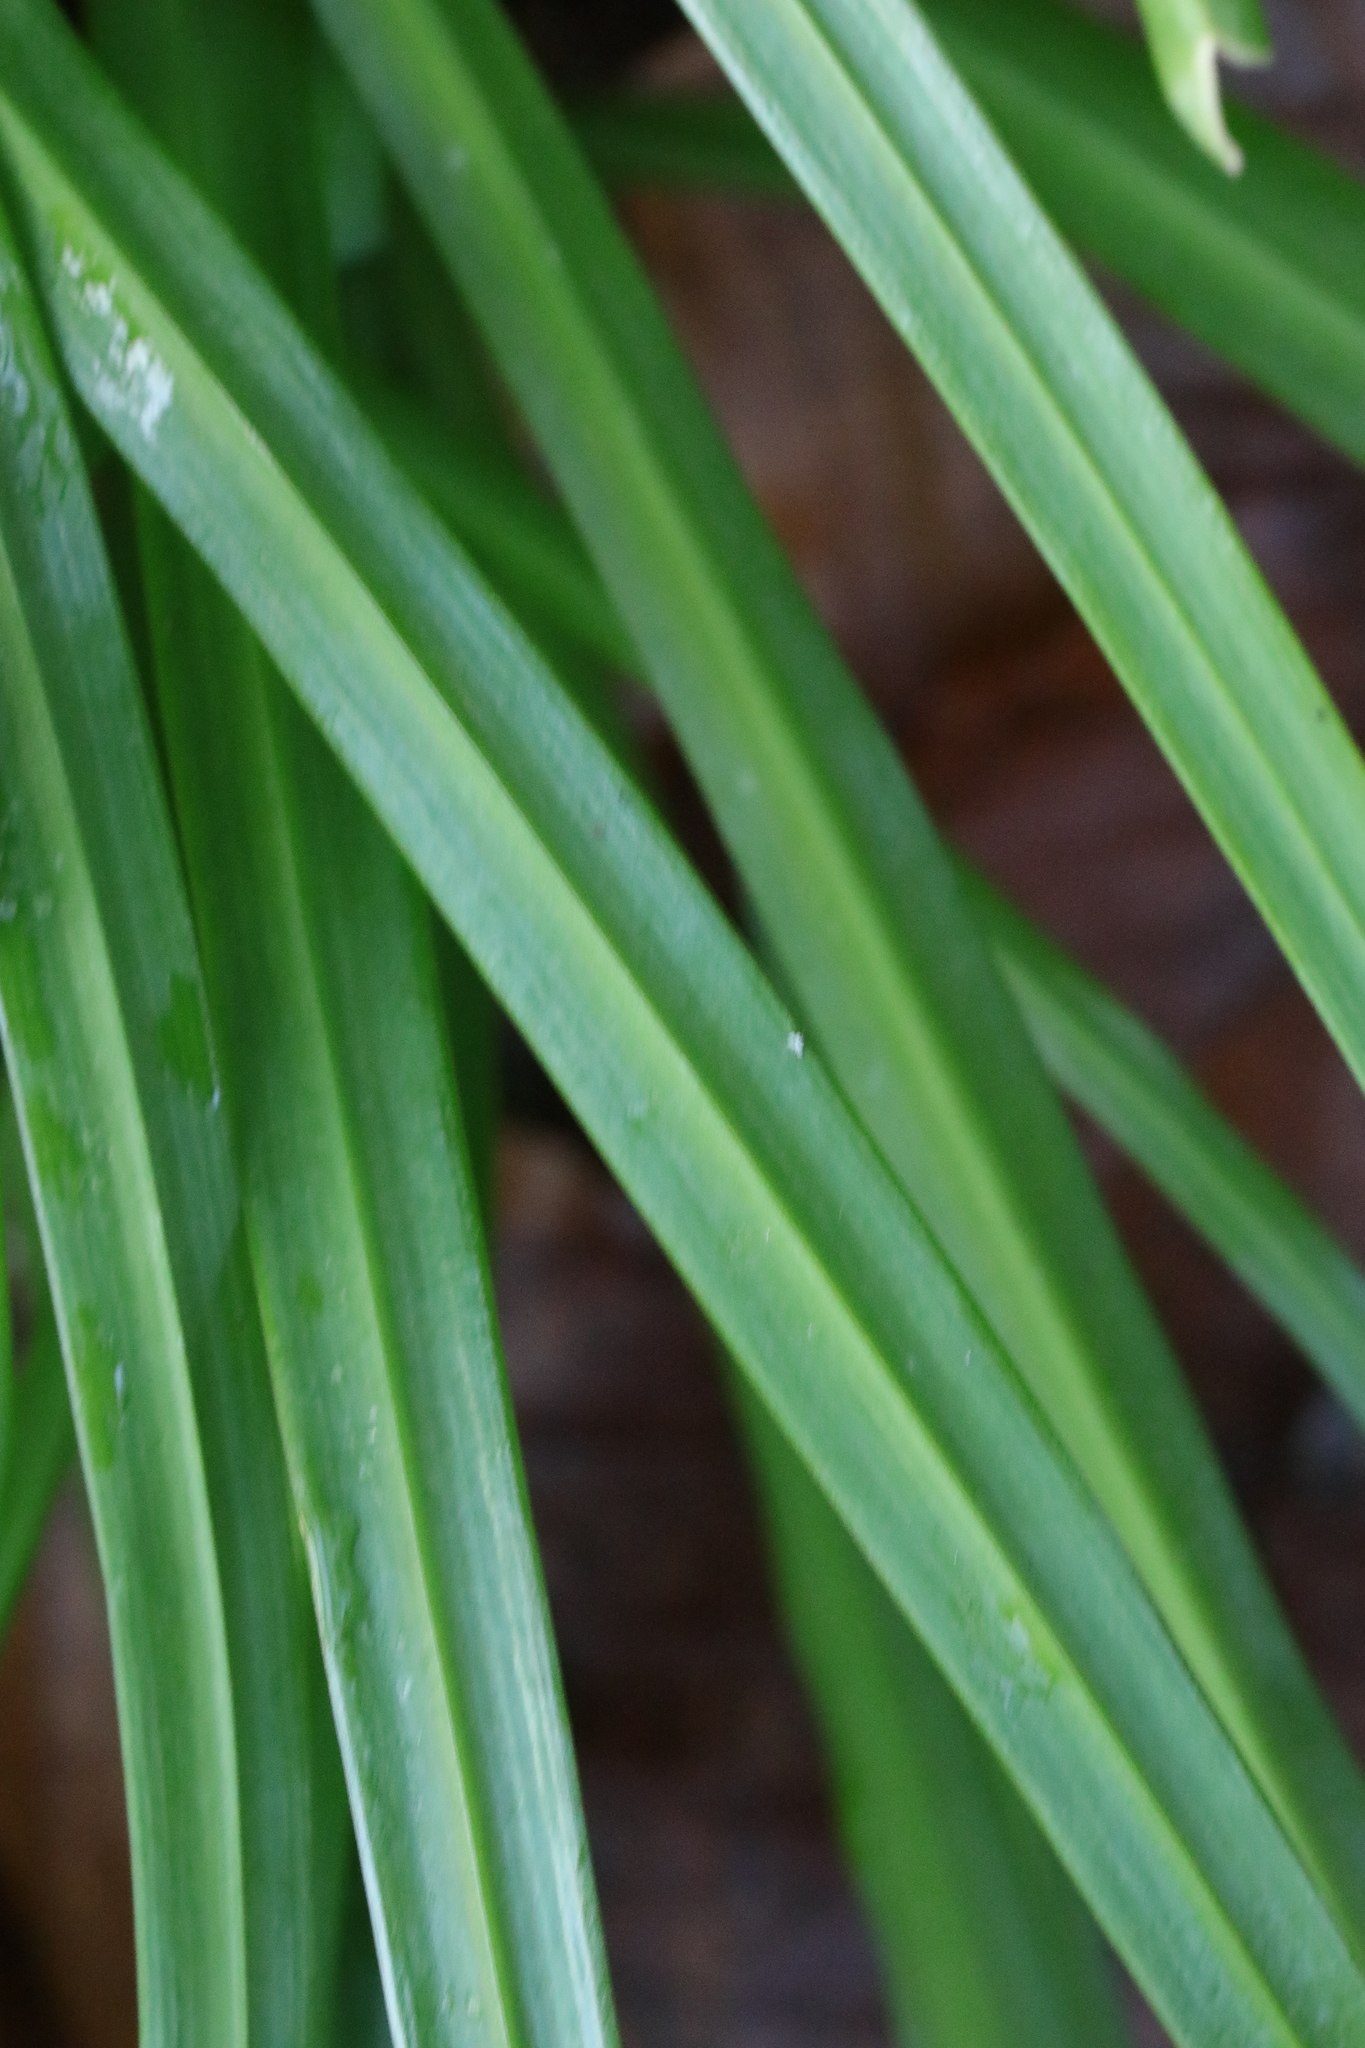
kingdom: Plantae
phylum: Tracheophyta
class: Liliopsida
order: Asparagales
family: Amaryllidaceae
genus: Allium
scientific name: Allium triquetrum
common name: Three-cornered garlic
